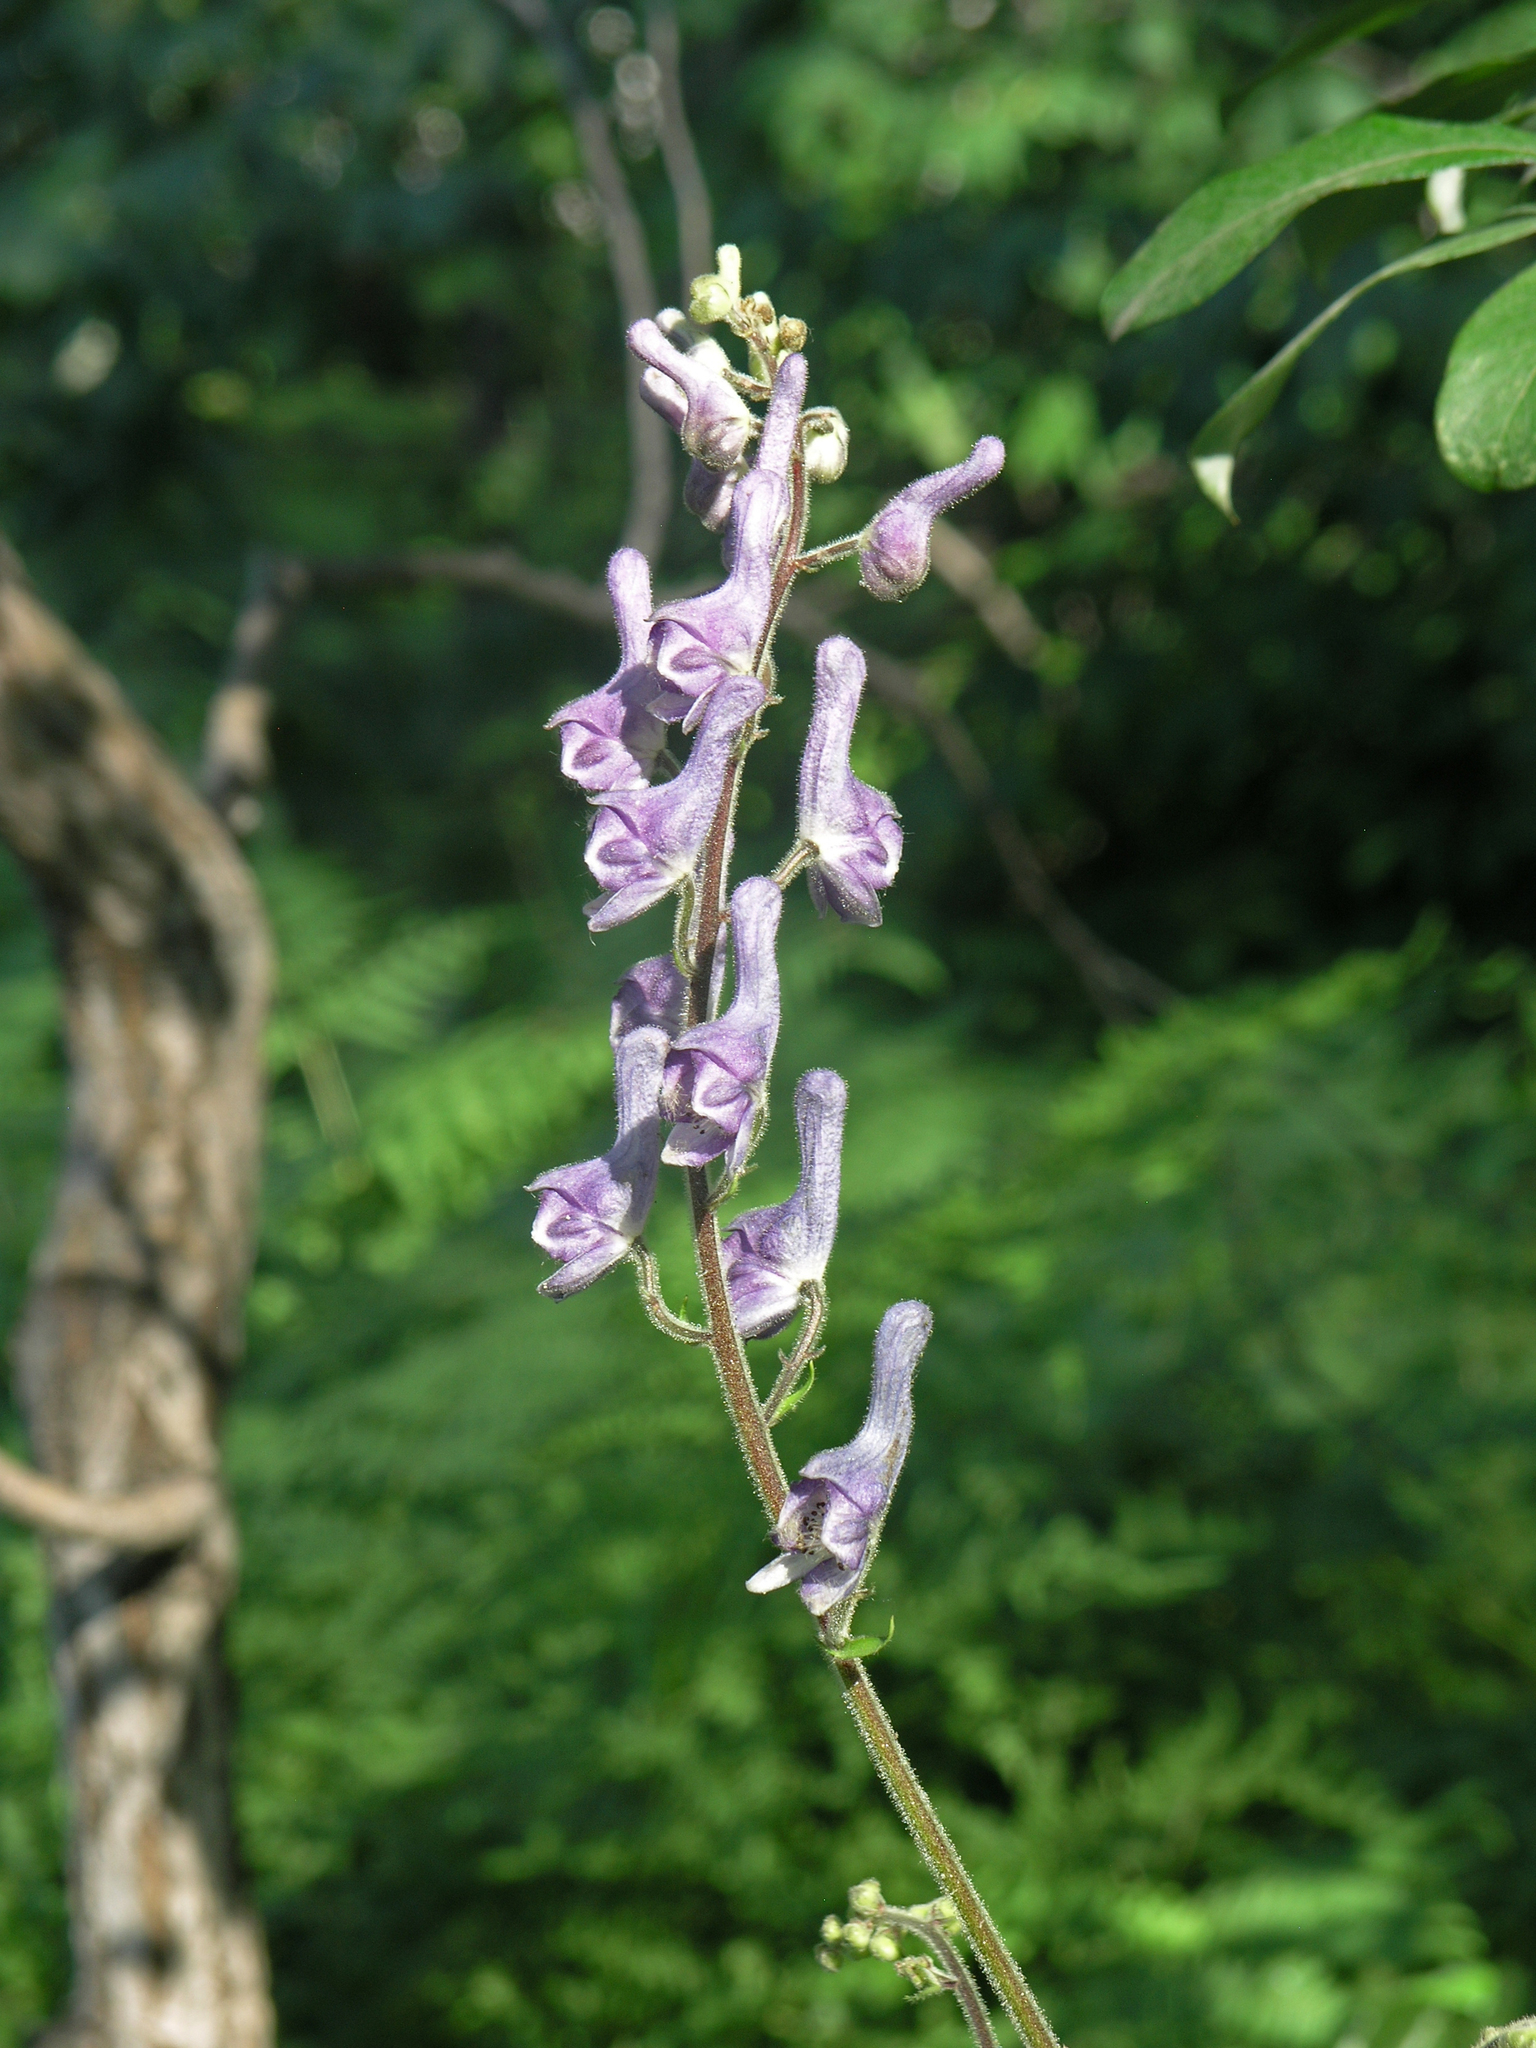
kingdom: Plantae
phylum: Tracheophyta
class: Magnoliopsida
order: Ranunculales
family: Ranunculaceae
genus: Aconitum
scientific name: Aconitum septentrionale
